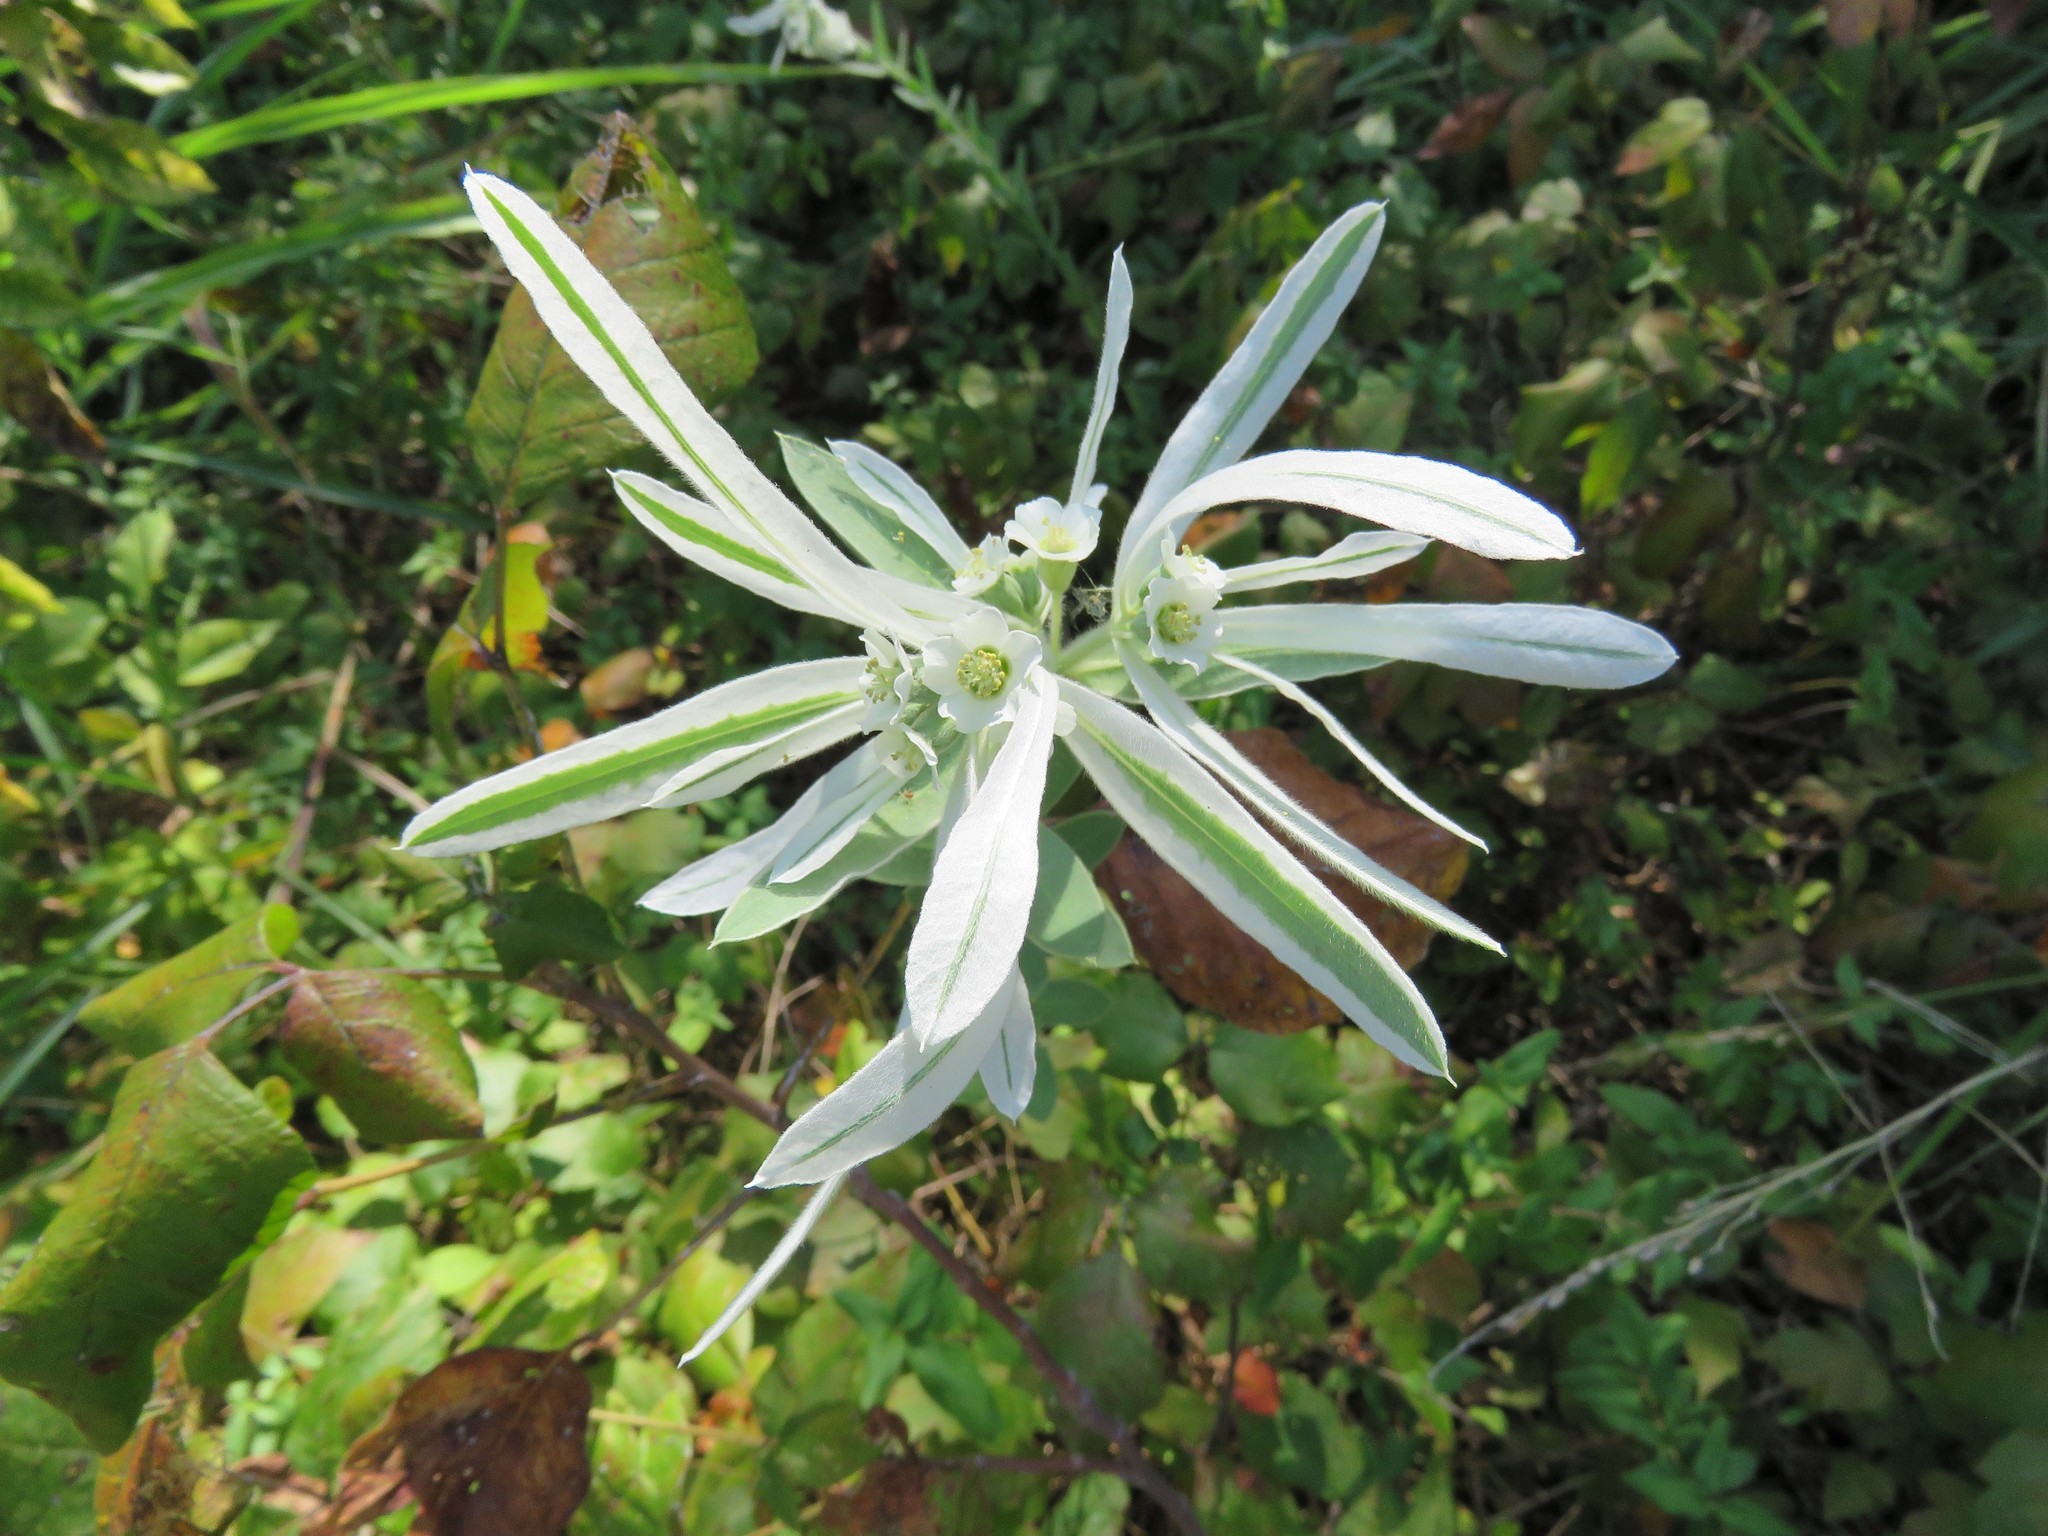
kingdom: Plantae
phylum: Tracheophyta
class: Magnoliopsida
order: Malpighiales
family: Euphorbiaceae
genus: Euphorbia
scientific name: Euphorbia bicolor
